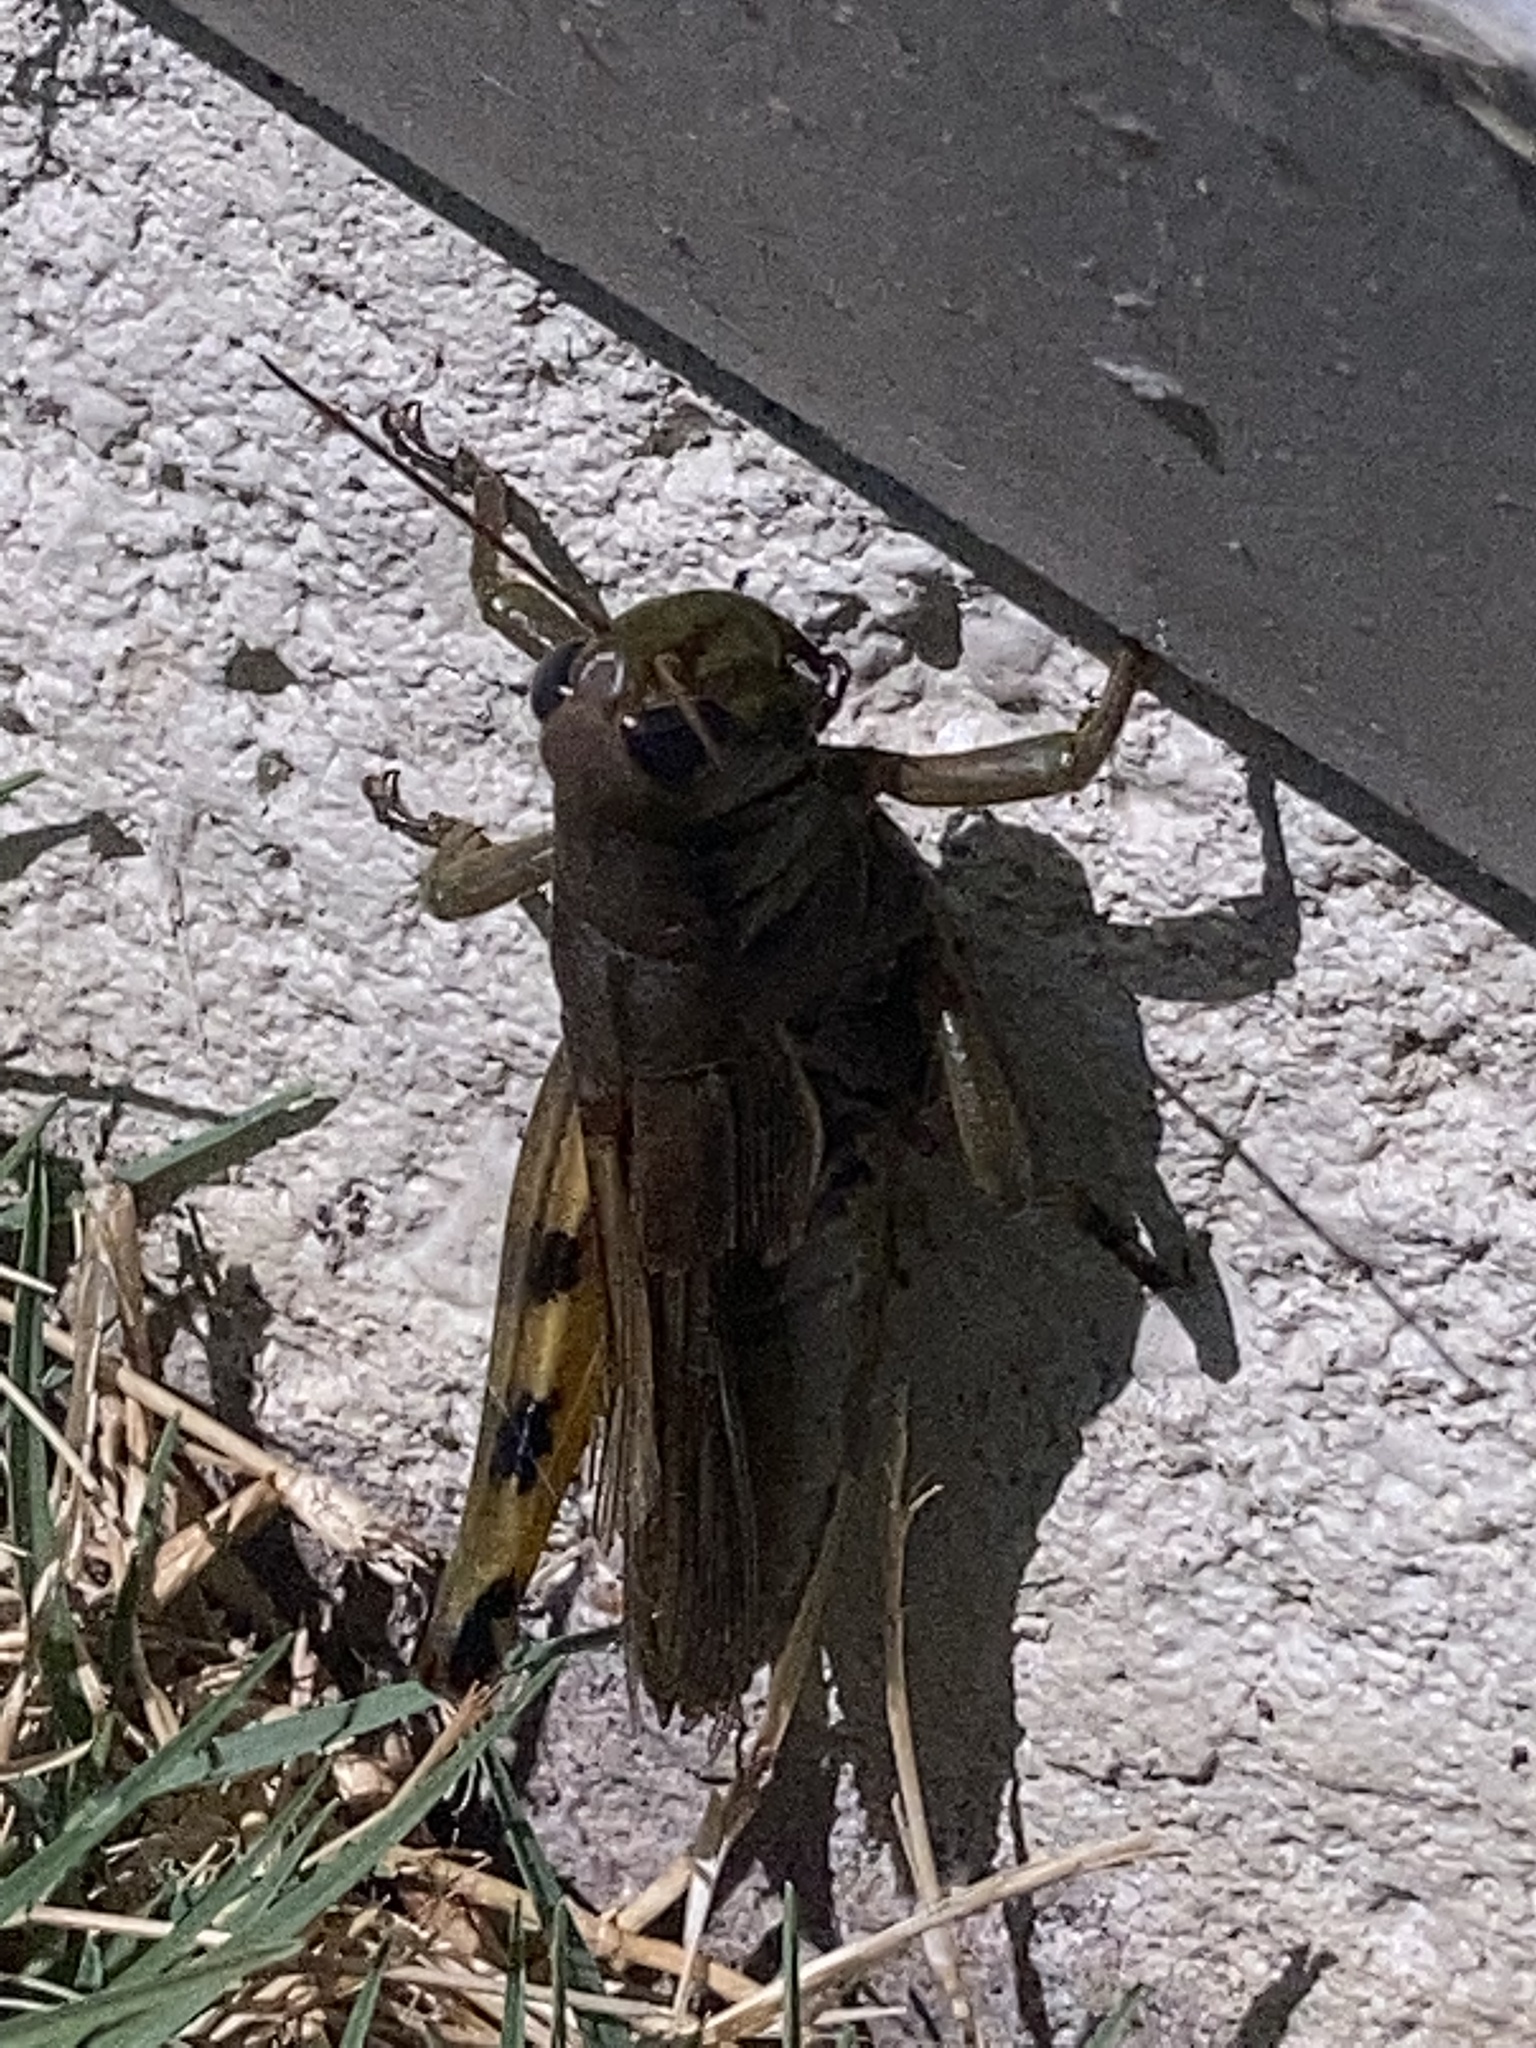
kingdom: Animalia
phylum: Arthropoda
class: Insecta
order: Orthoptera
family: Acrididae
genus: Melanoplus
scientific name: Melanoplus differentialis
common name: Differential grasshopper
